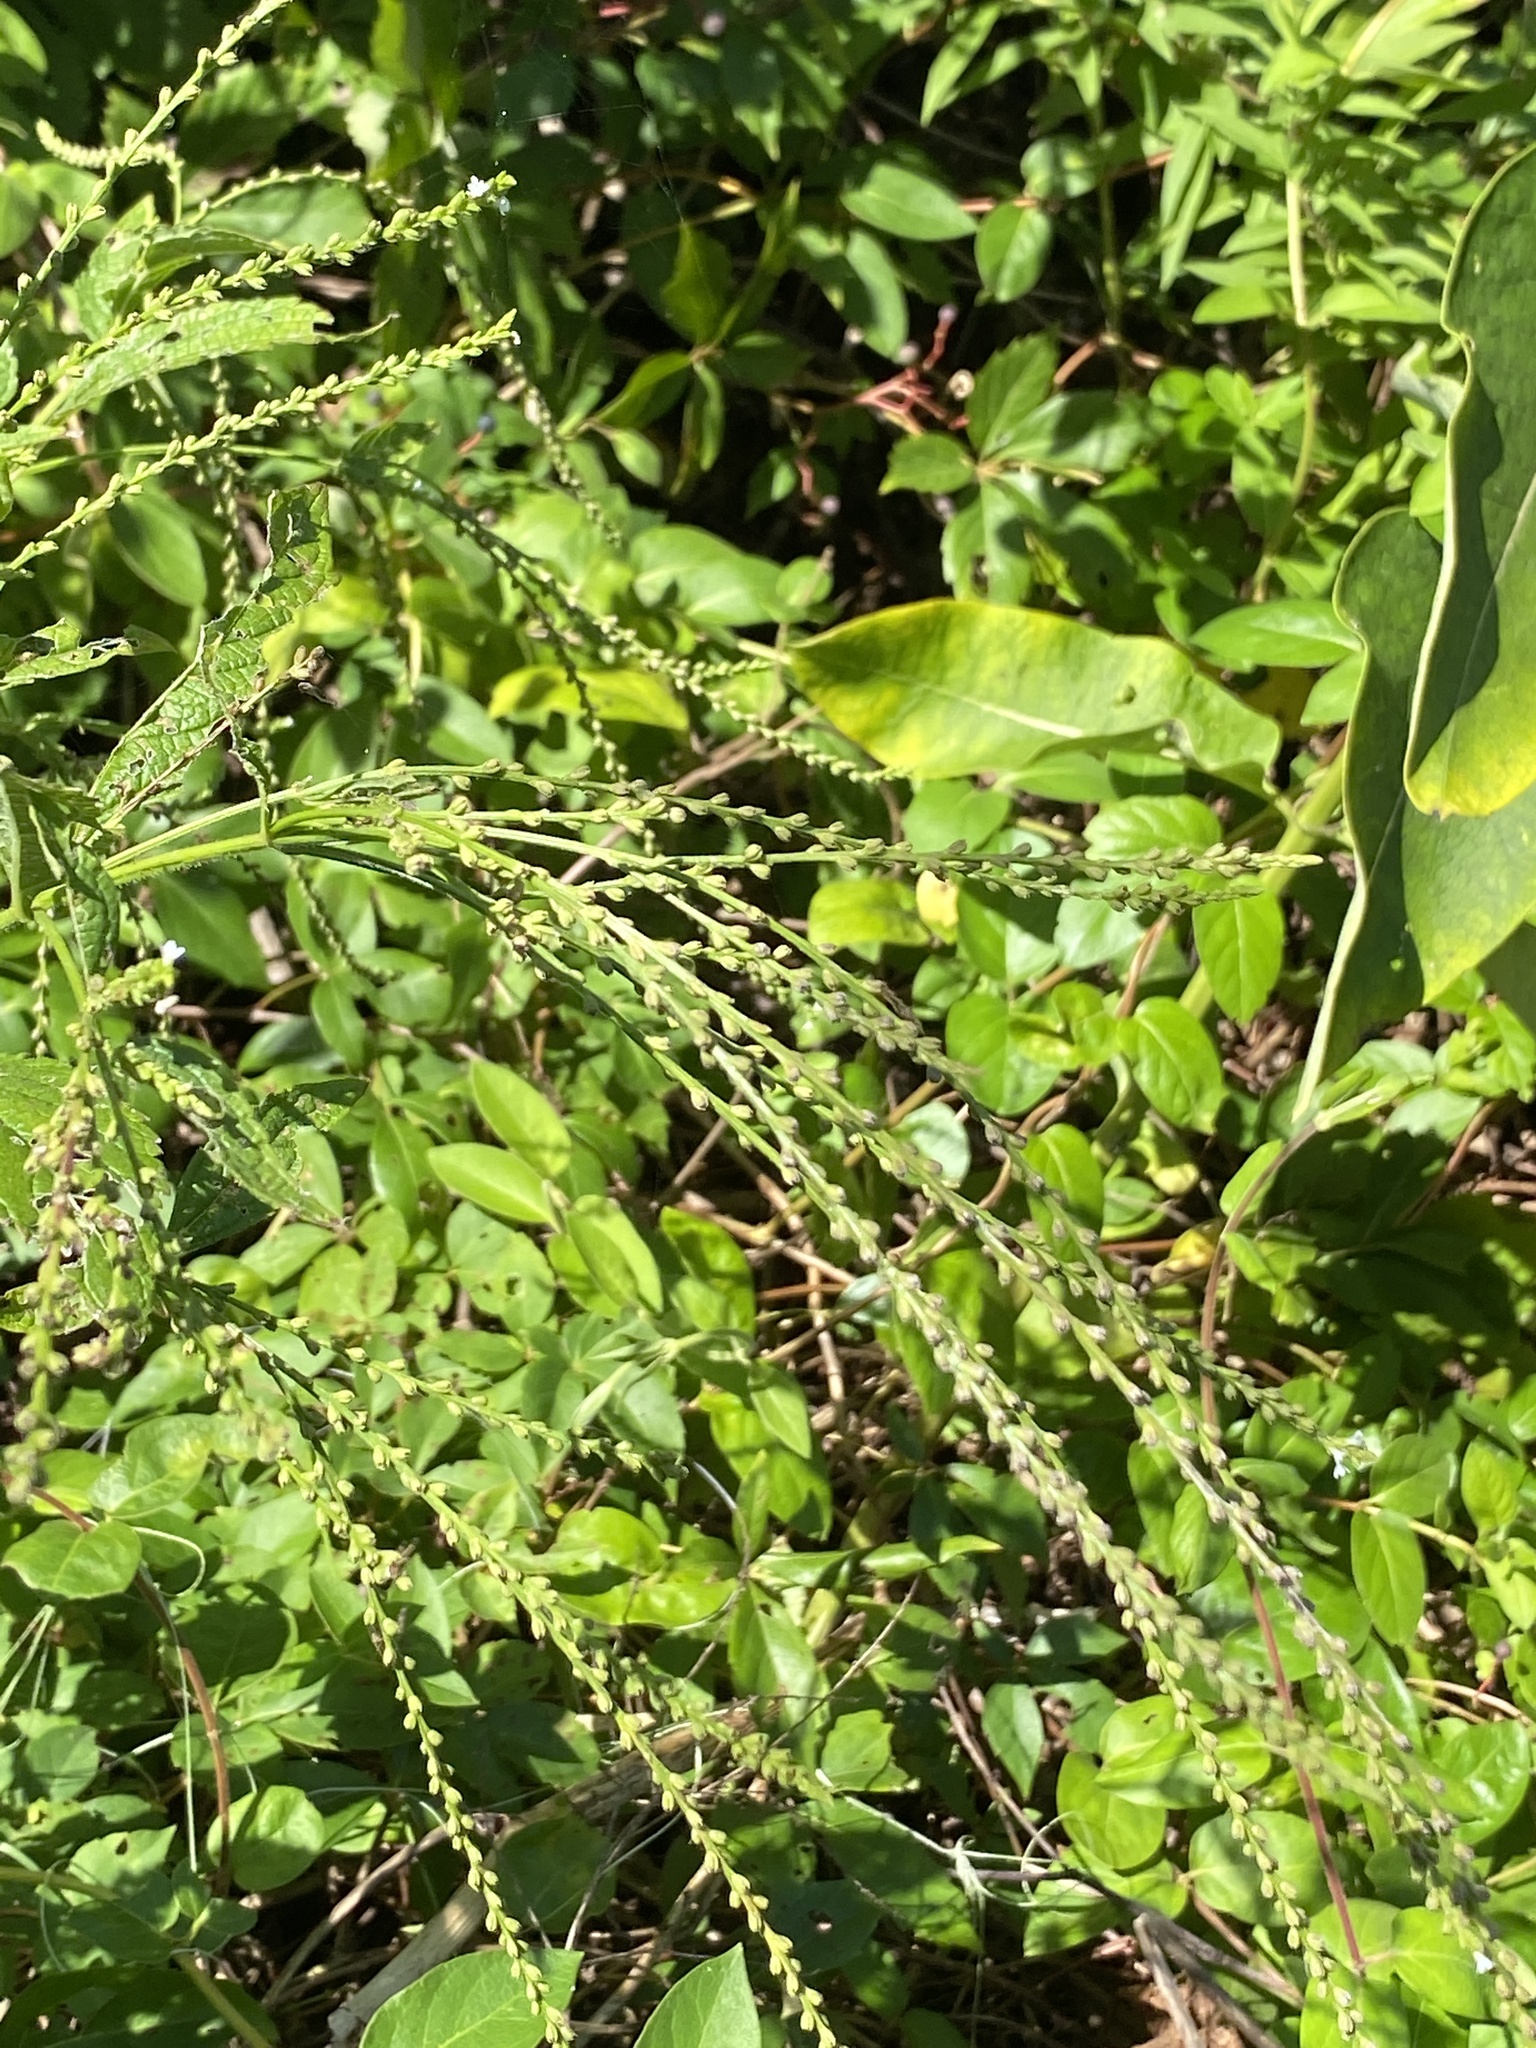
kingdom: Plantae
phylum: Tracheophyta
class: Magnoliopsida
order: Lamiales
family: Verbenaceae
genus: Verbena
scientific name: Verbena urticifolia
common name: Nettle-leaved vervain
